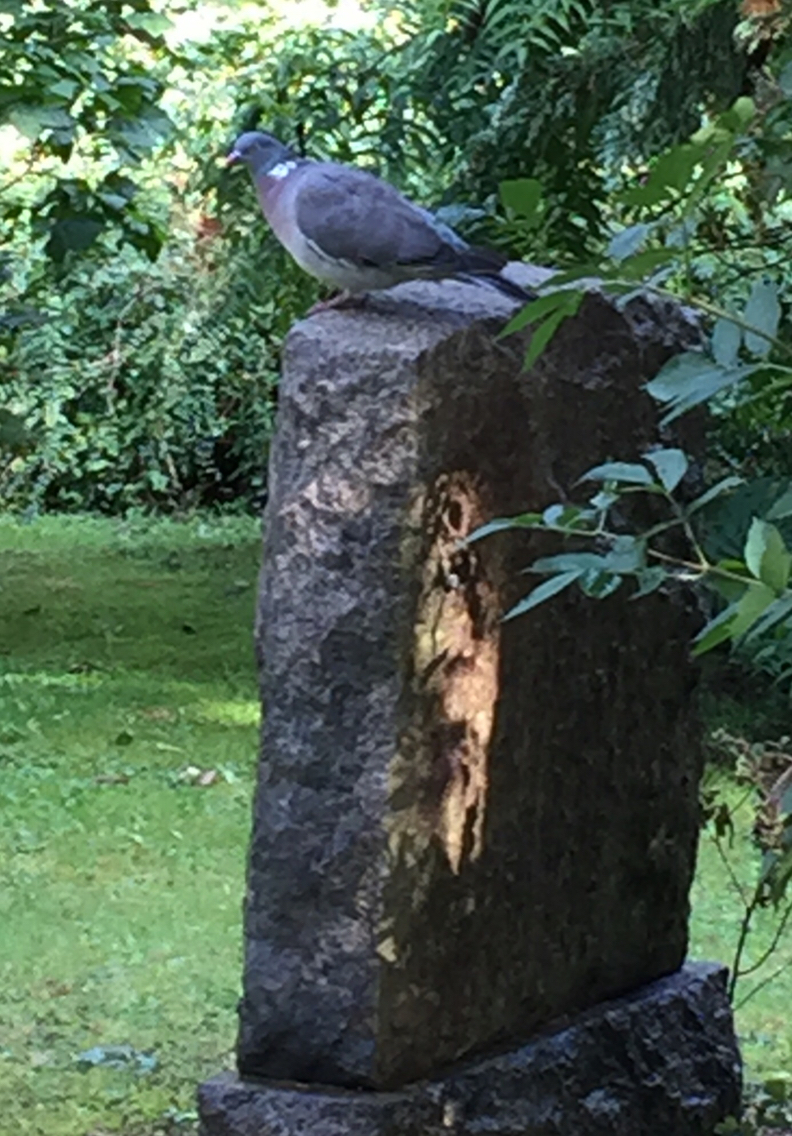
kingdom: Animalia
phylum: Chordata
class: Aves
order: Columbiformes
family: Columbidae
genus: Columba
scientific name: Columba palumbus
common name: Common wood pigeon
